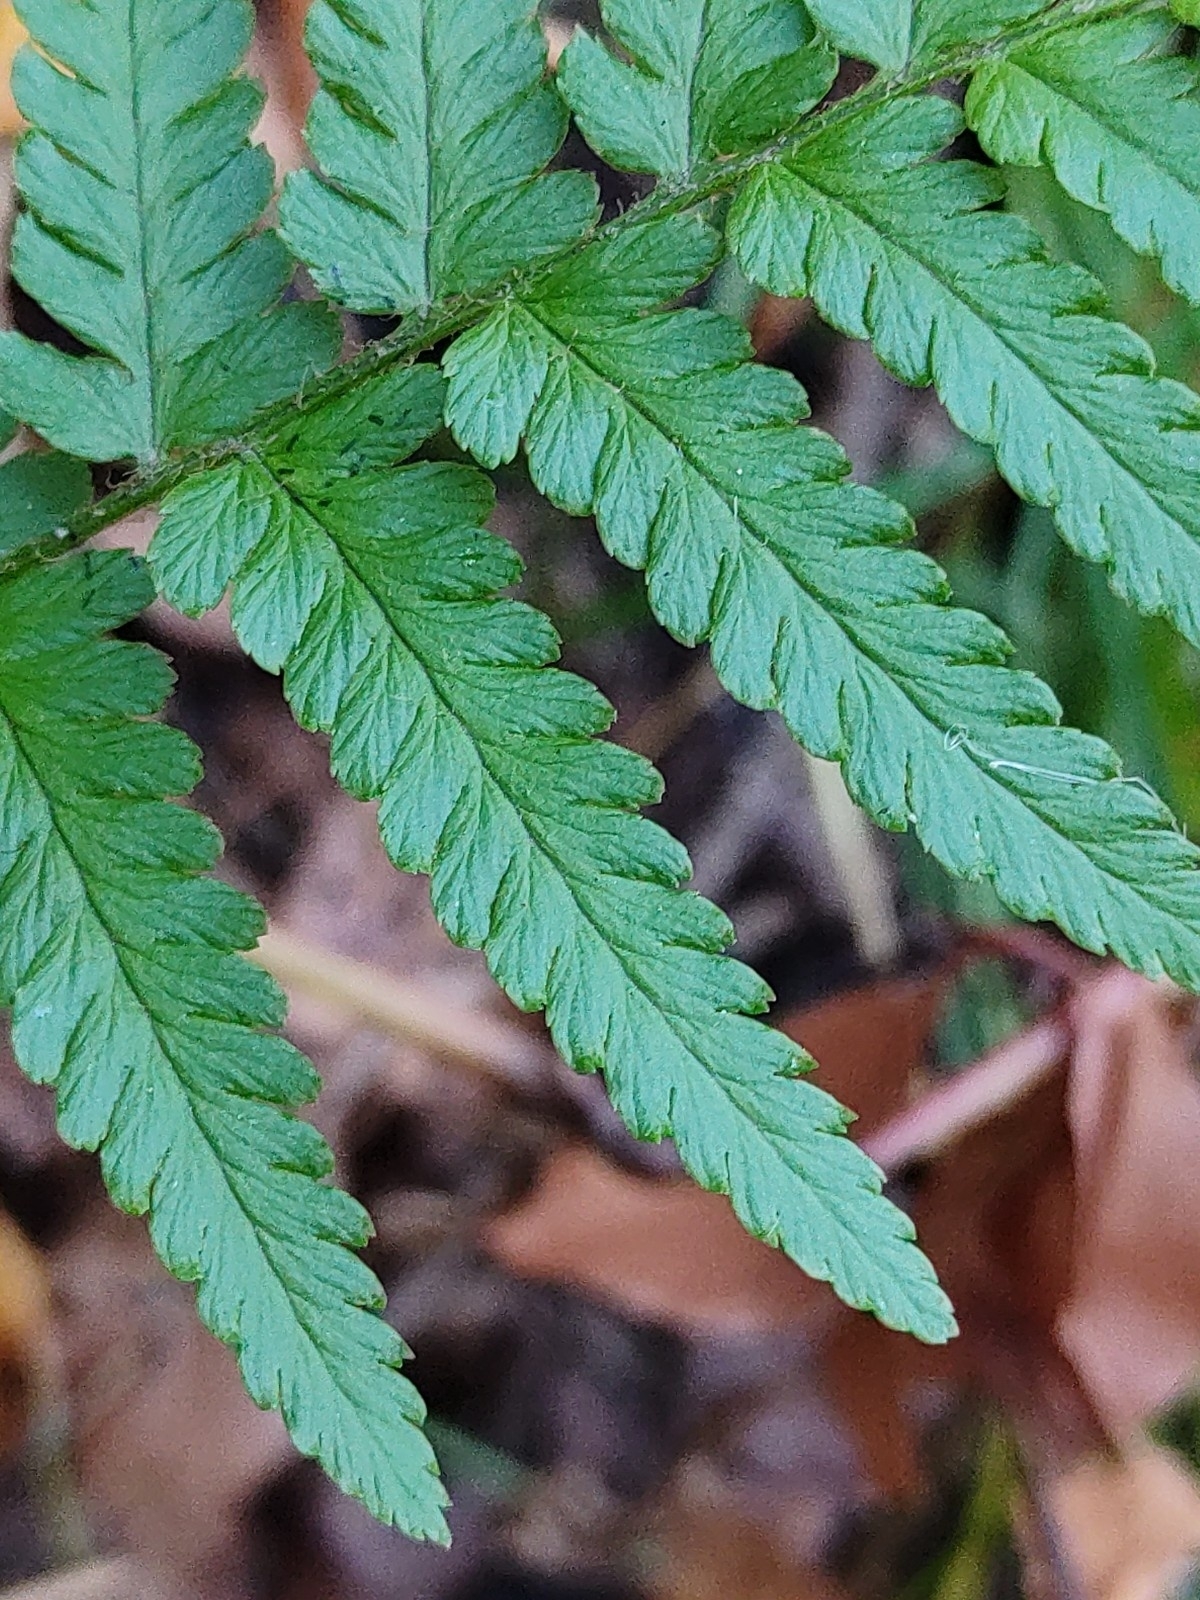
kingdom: Plantae
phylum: Tracheophyta
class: Polypodiopsida
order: Polypodiales
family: Dryopteridaceae
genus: Dryopteris
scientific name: Dryopteris filix-mas
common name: Male fern
